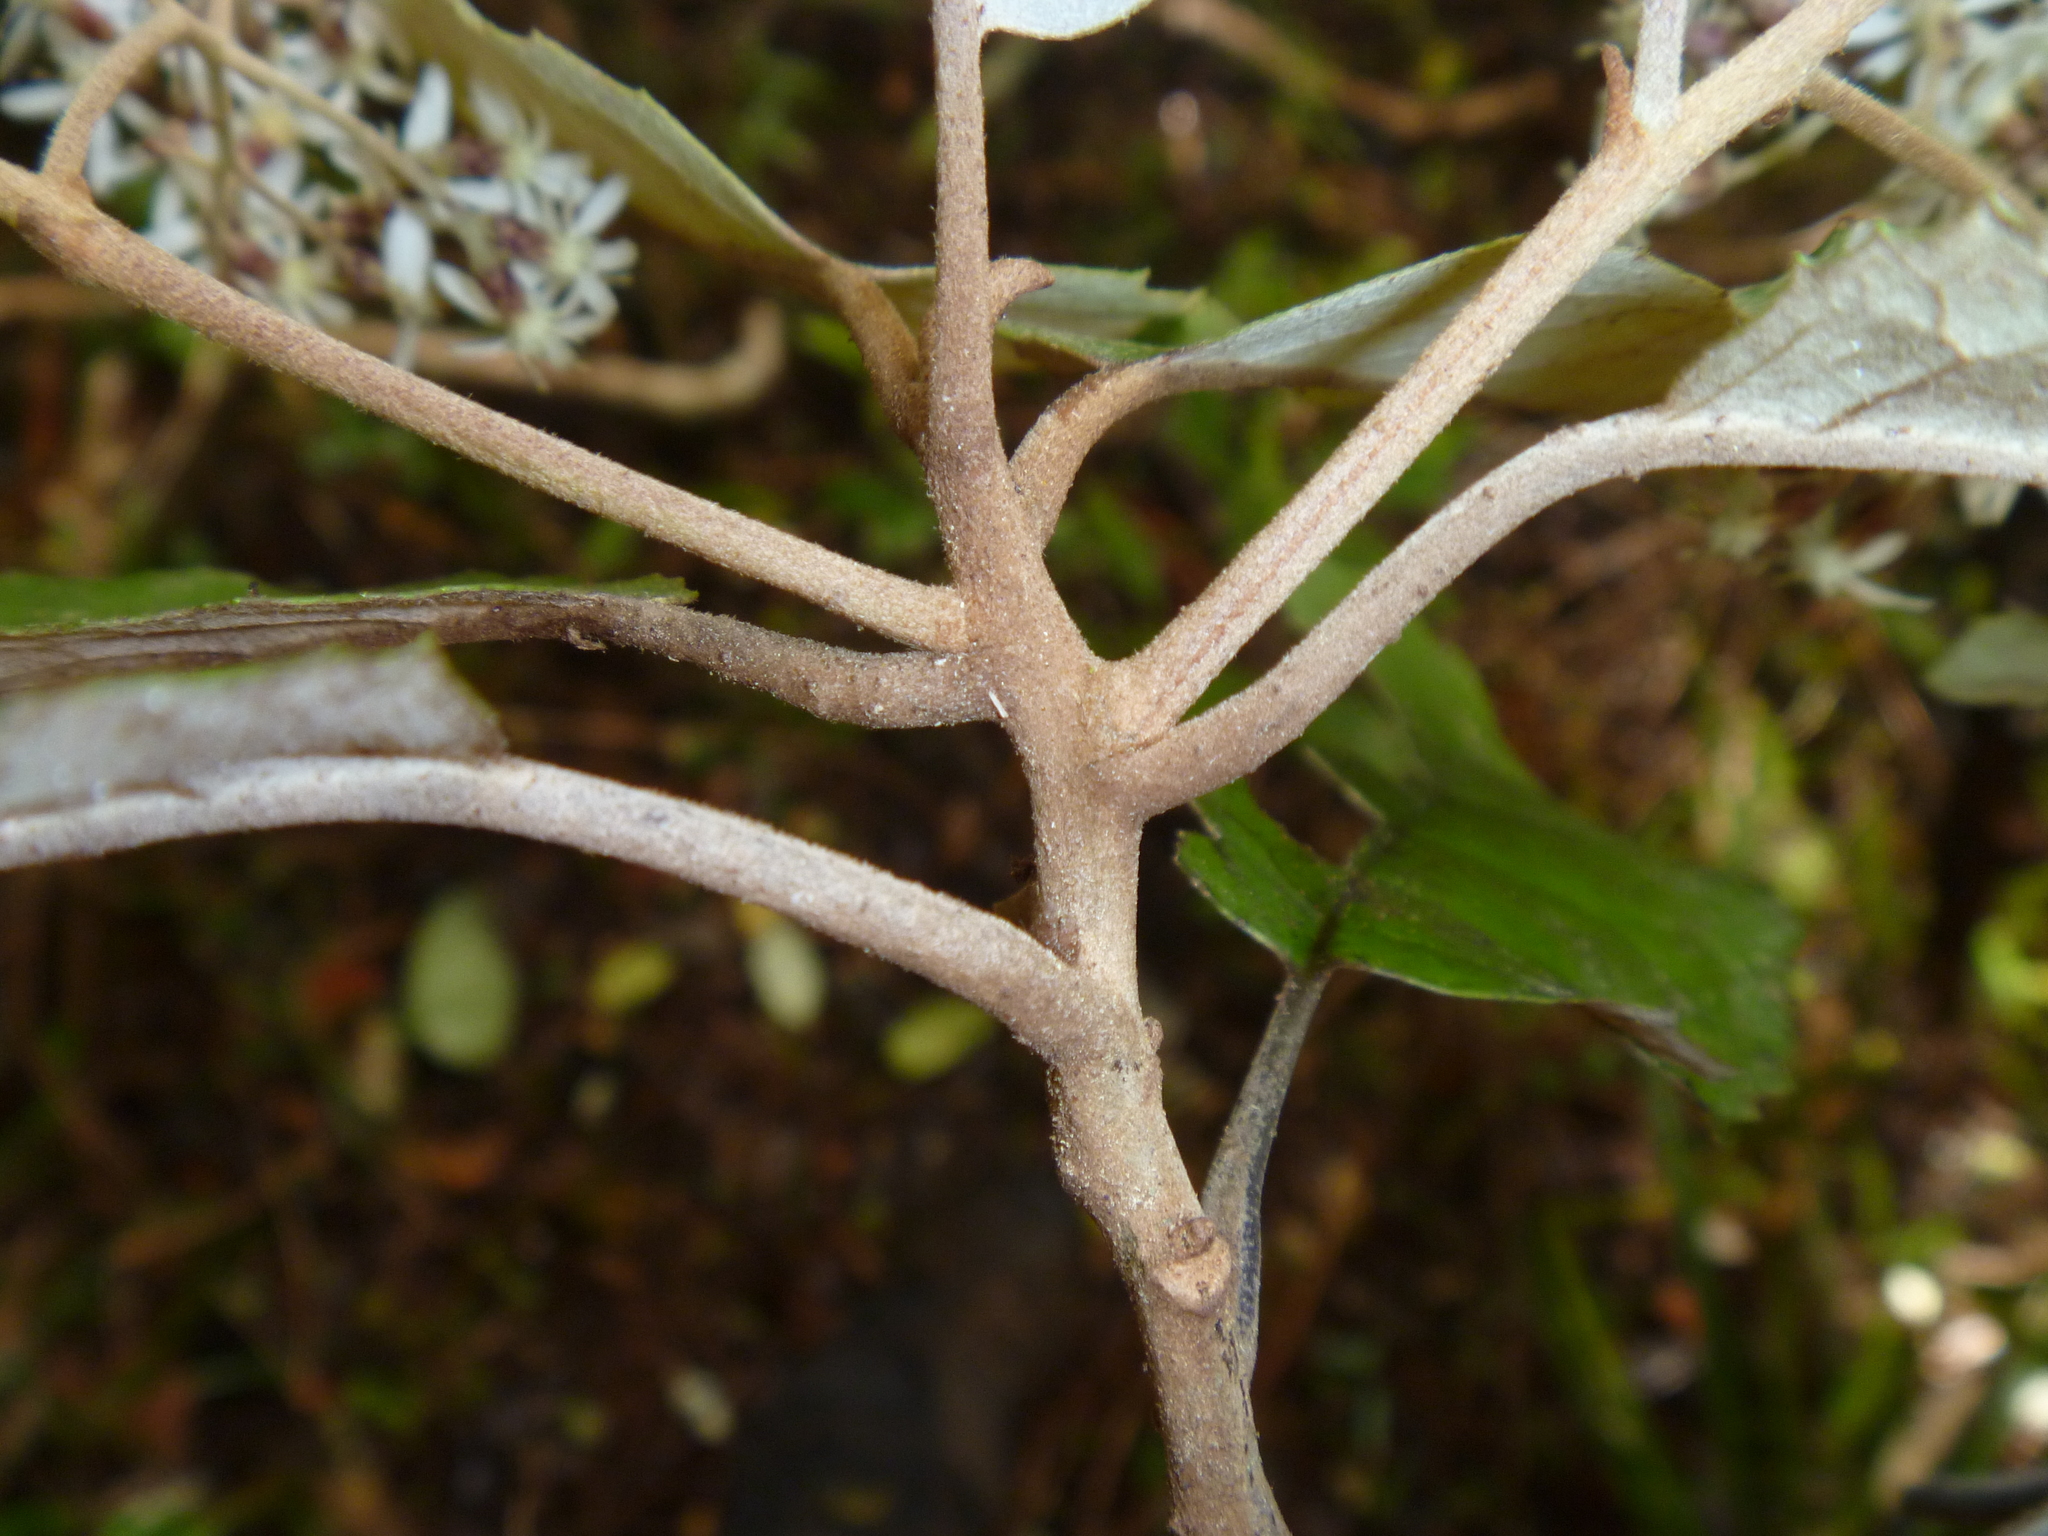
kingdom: Plantae
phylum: Tracheophyta
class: Magnoliopsida
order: Asterales
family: Asteraceae
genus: Olearia
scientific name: Olearia rani
